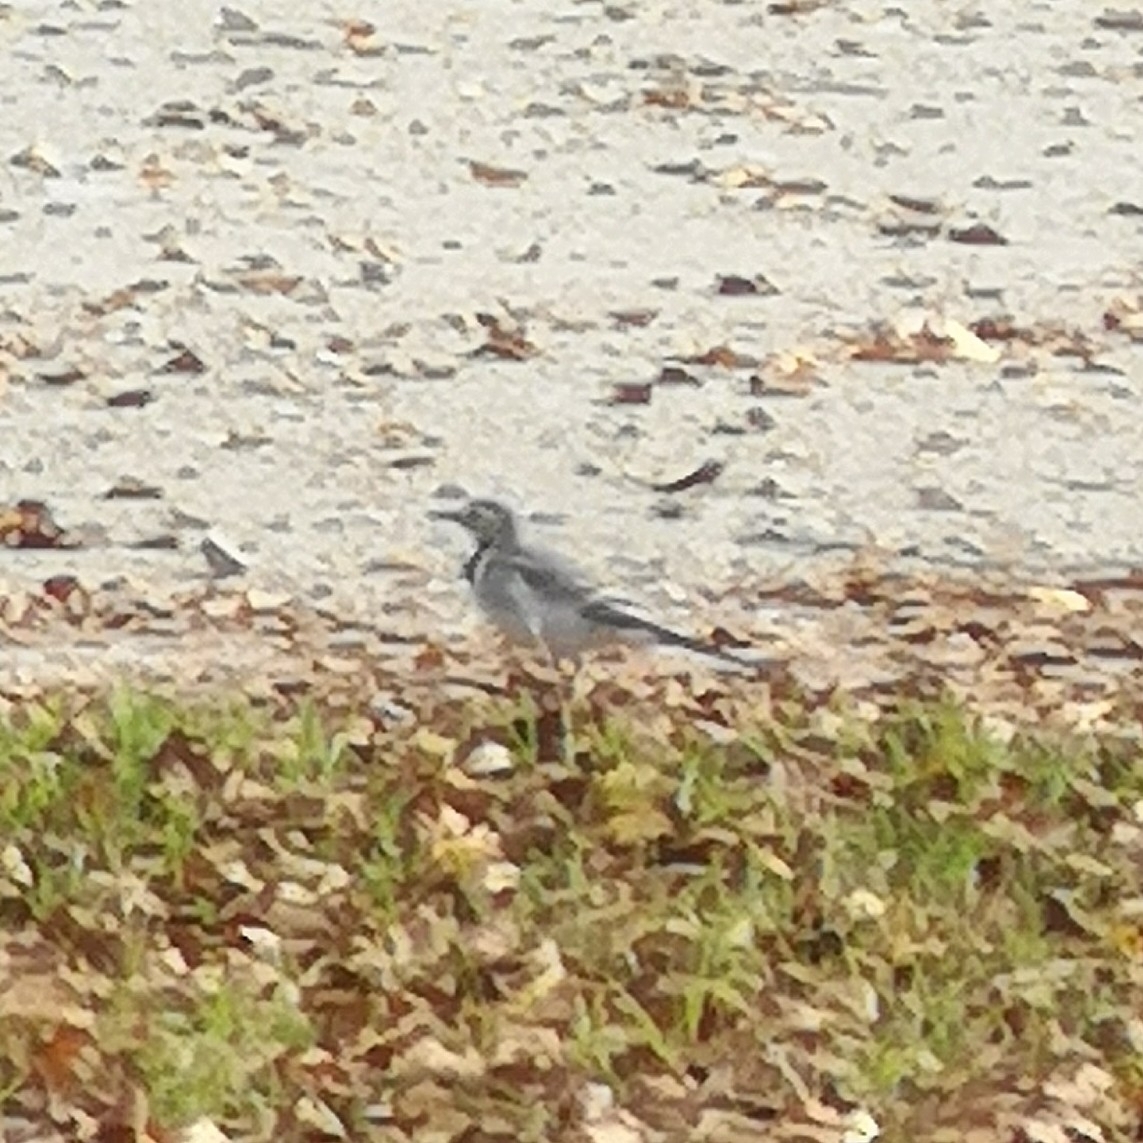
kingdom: Animalia
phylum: Chordata
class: Aves
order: Passeriformes
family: Motacillidae
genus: Motacilla
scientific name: Motacilla alba
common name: White wagtail
